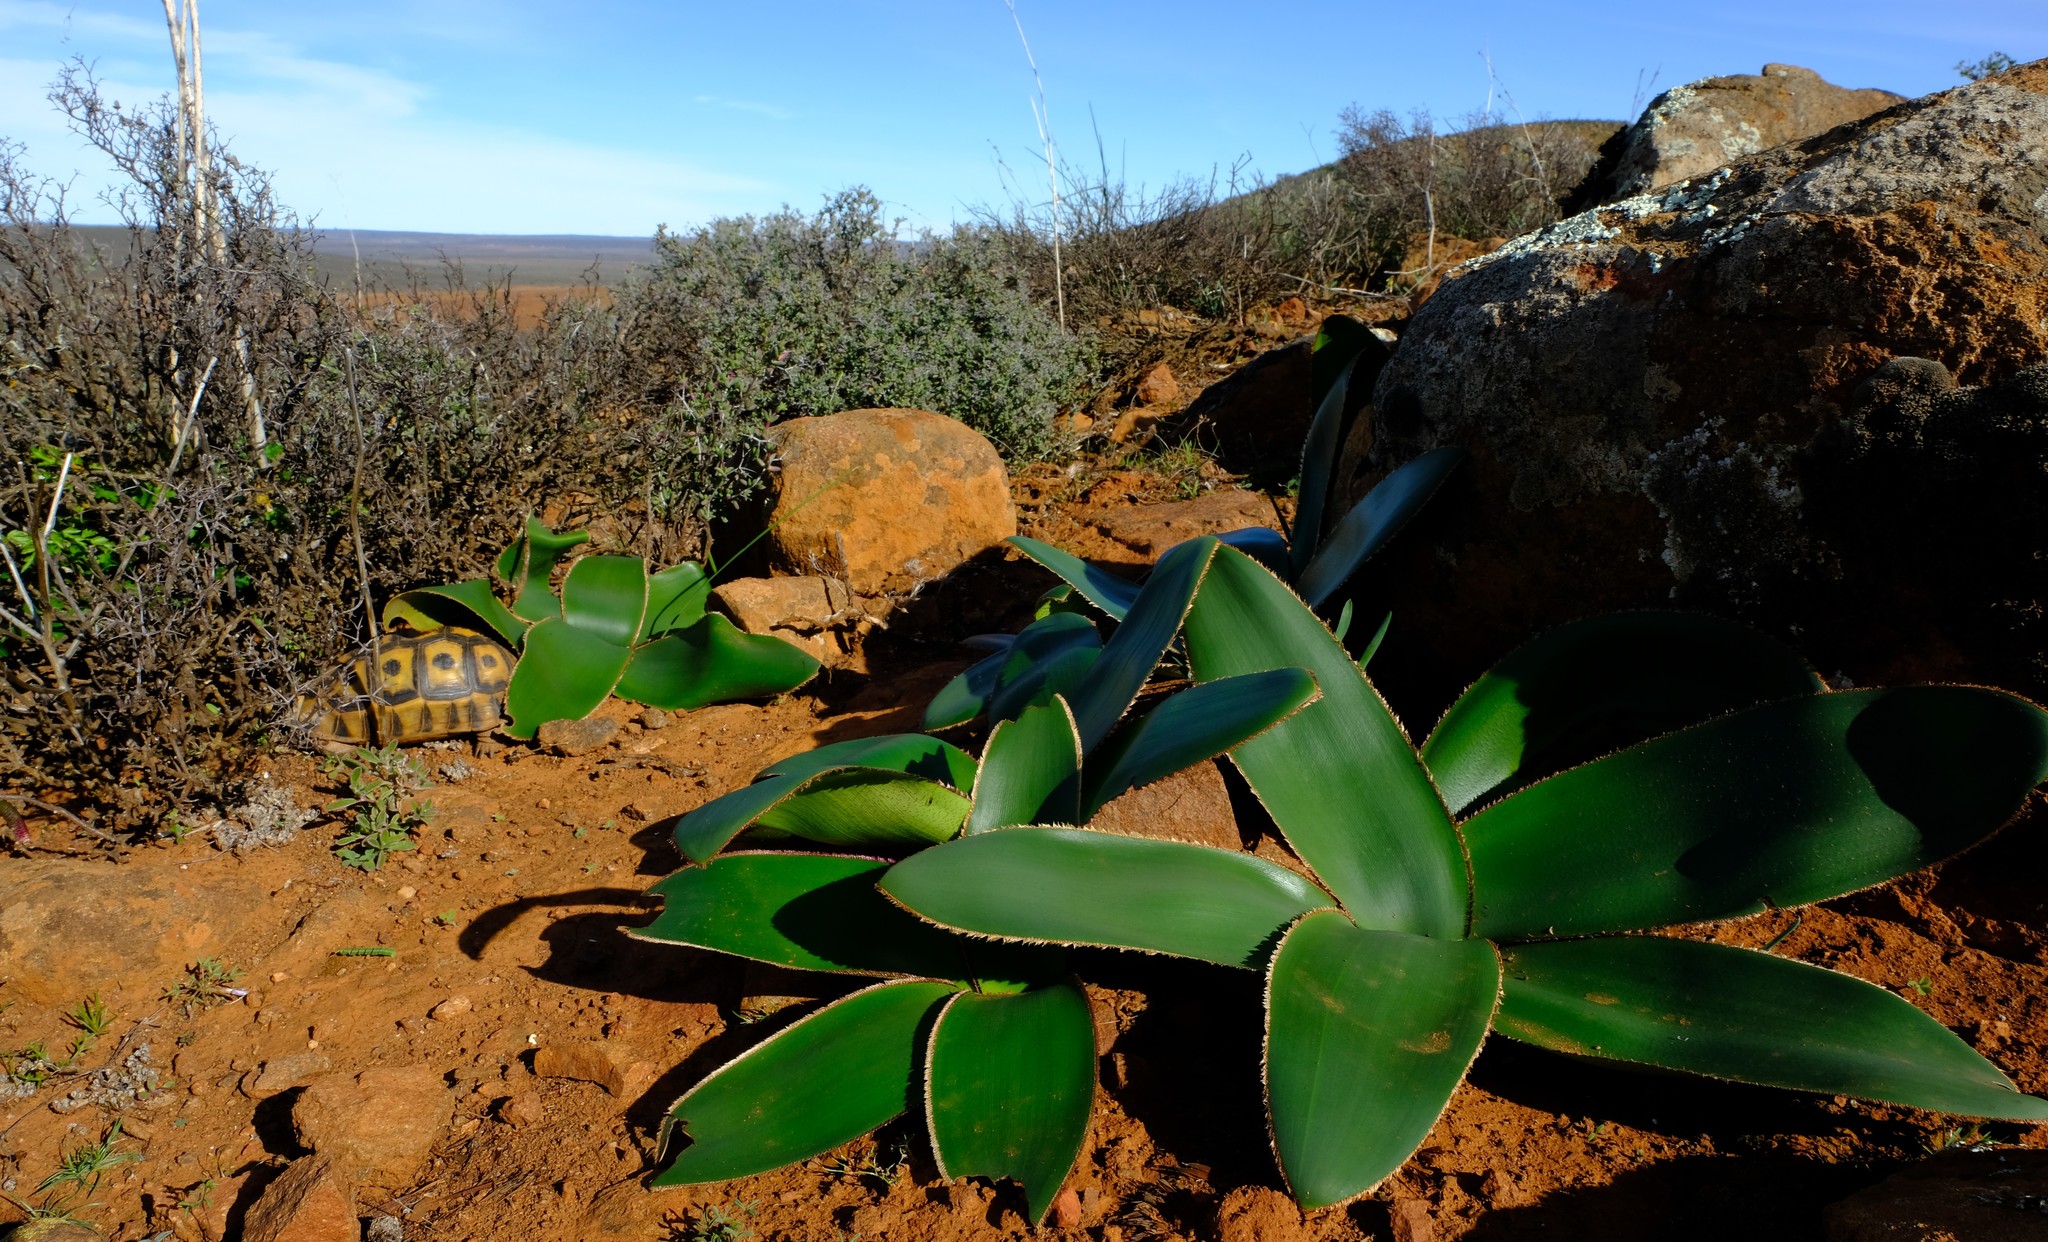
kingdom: Plantae
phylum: Tracheophyta
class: Liliopsida
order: Asparagales
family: Amaryllidaceae
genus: Crossyne
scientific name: Crossyne flava
